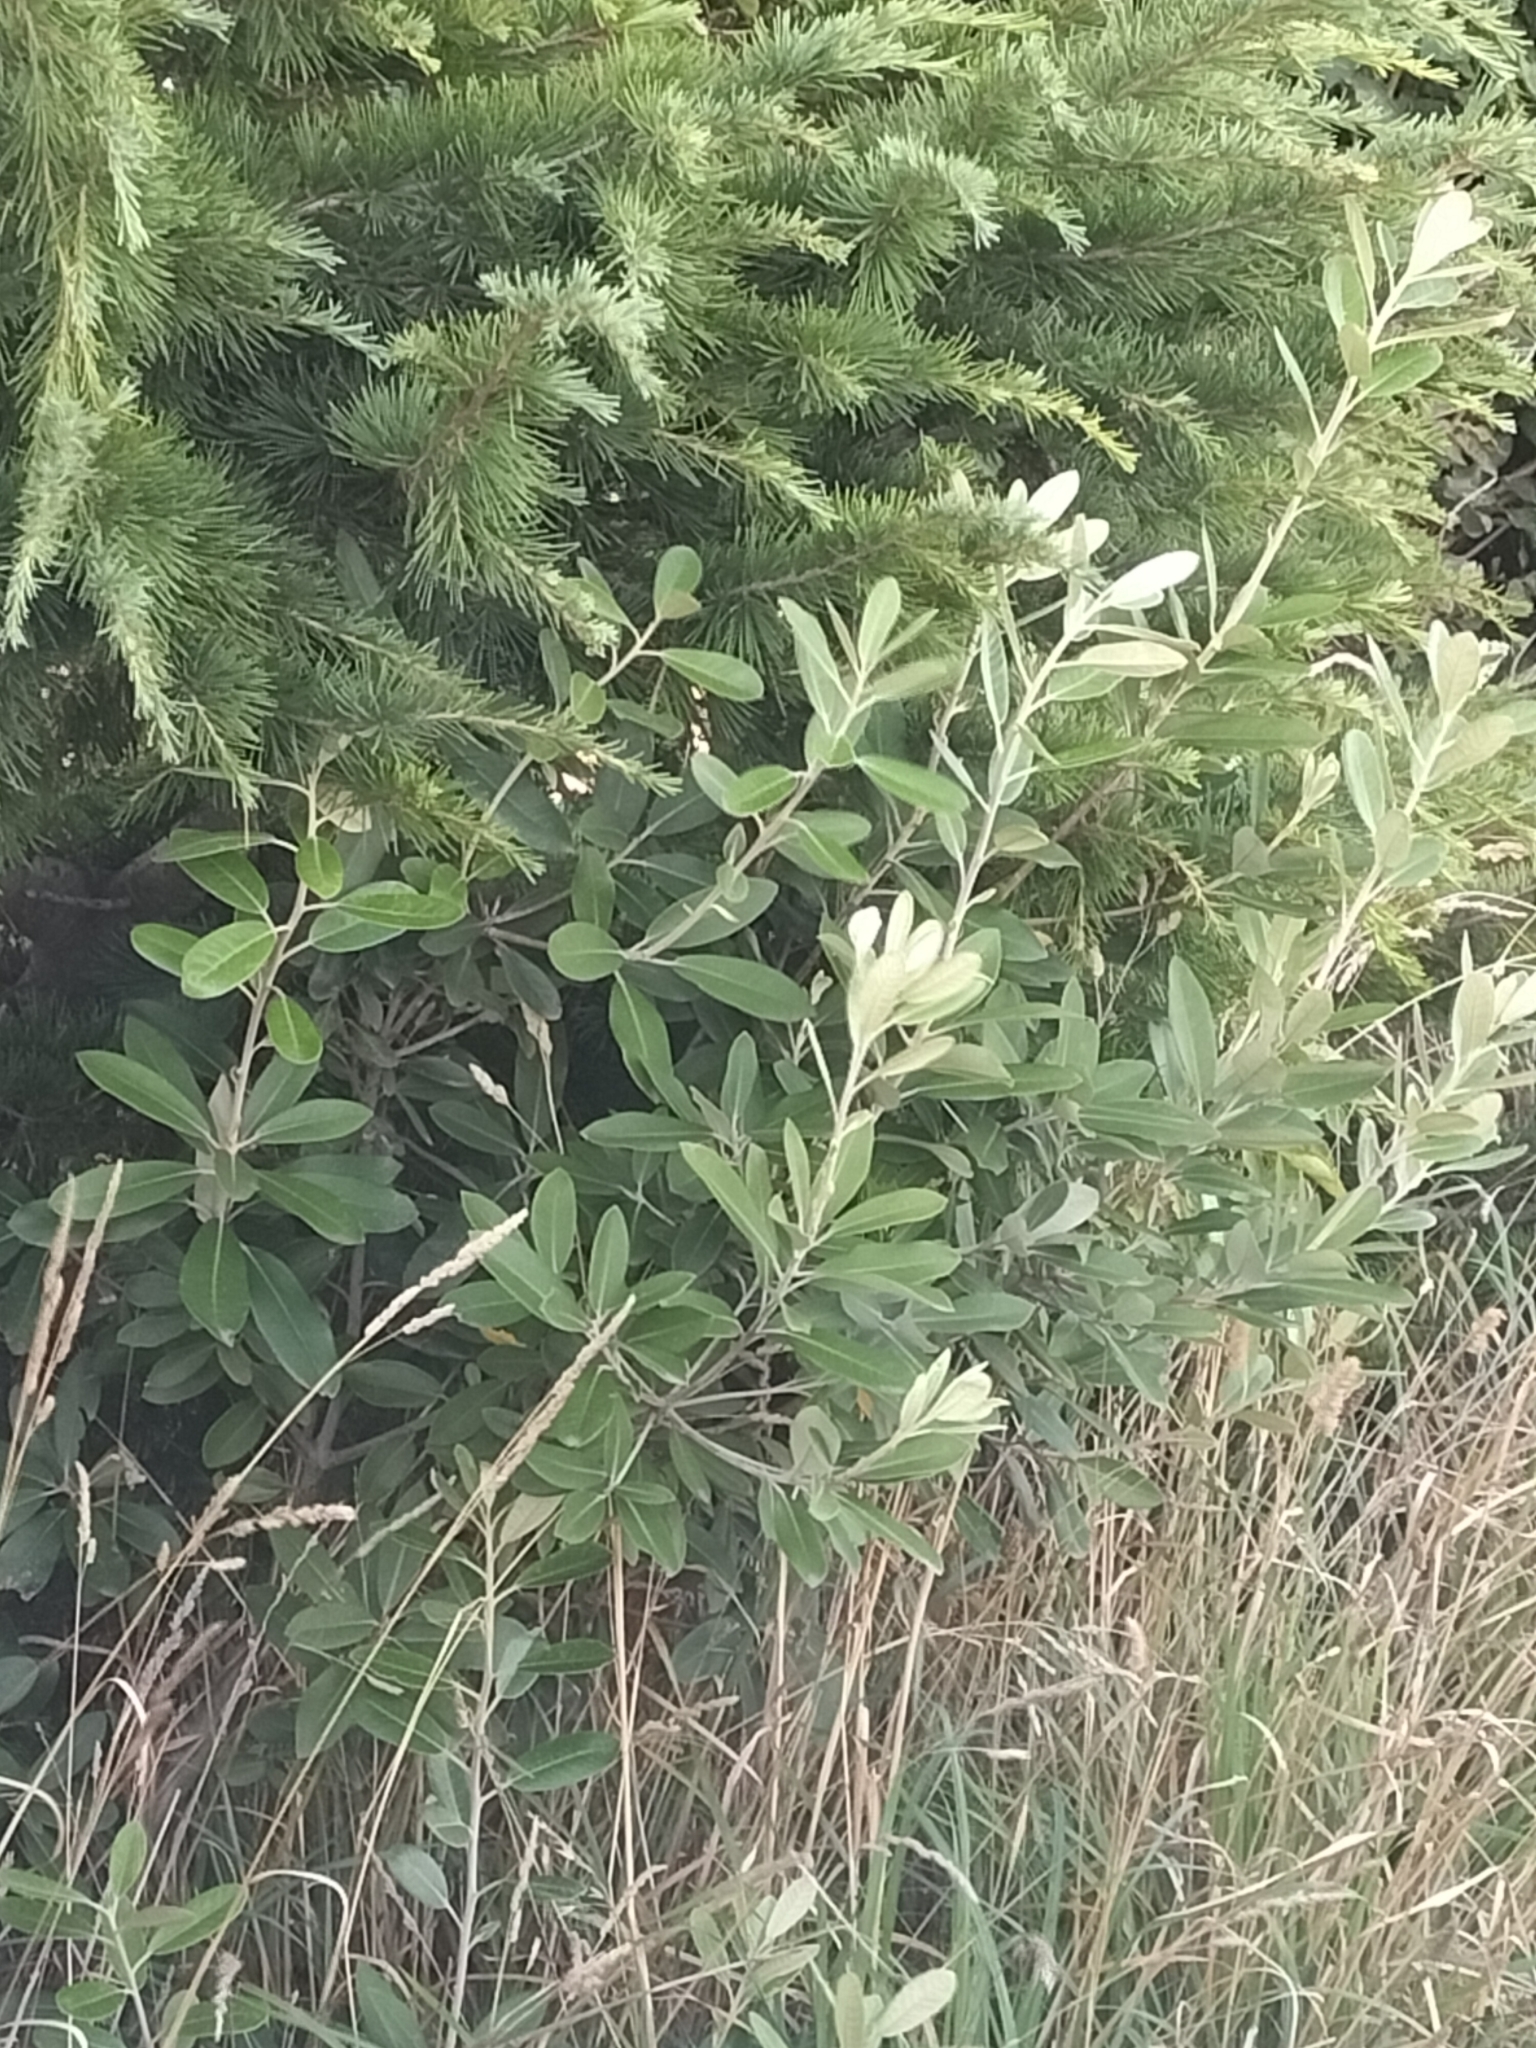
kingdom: Plantae
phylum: Tracheophyta
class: Magnoliopsida
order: Apiales
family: Pittosporaceae
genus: Pittosporum
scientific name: Pittosporum ralphii
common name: Ralph's desertwillow
